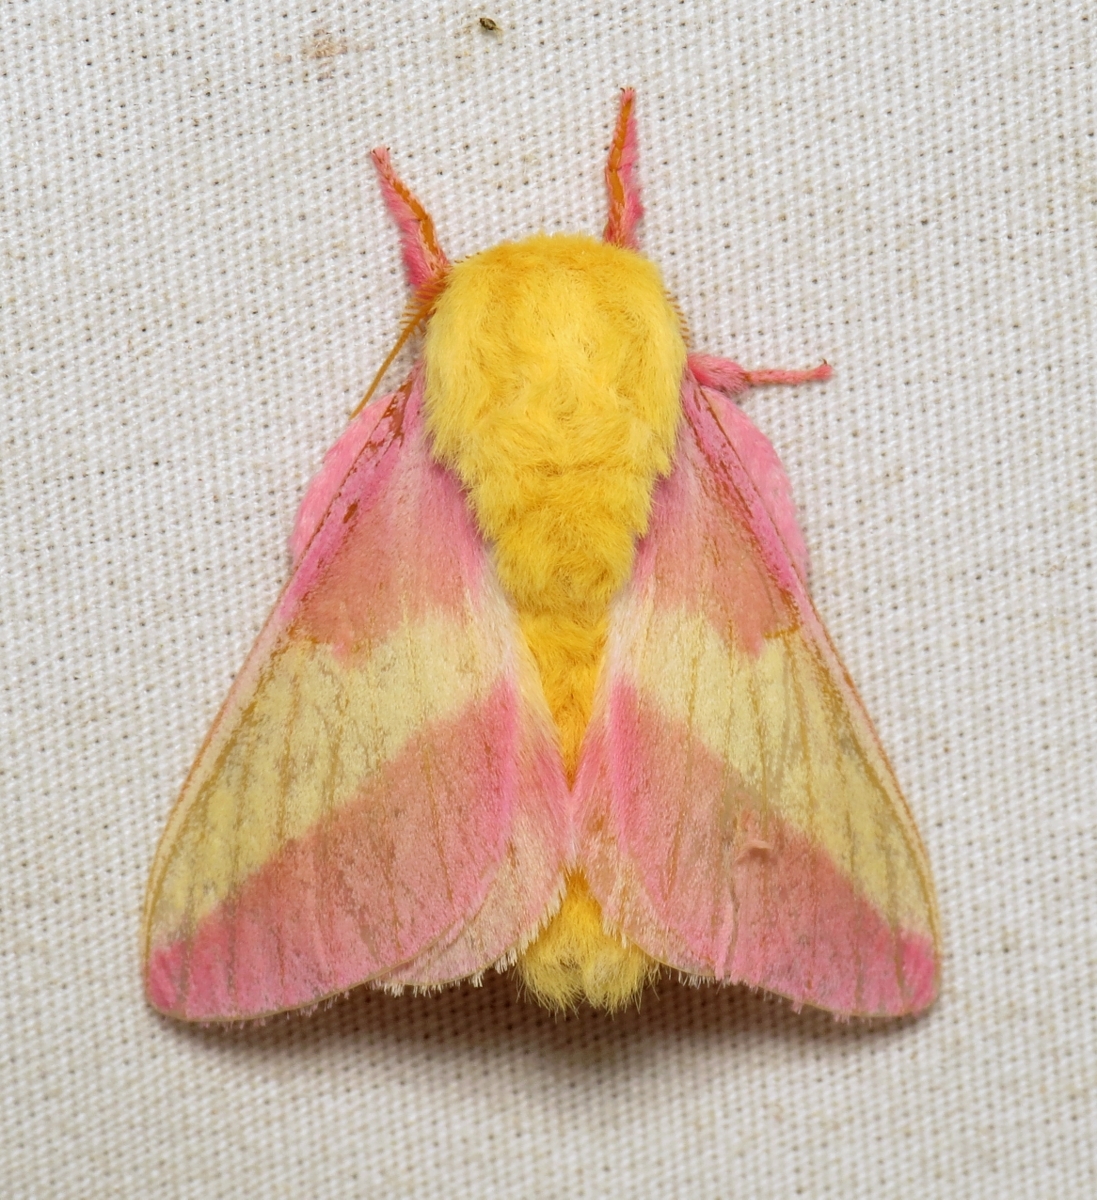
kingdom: Animalia
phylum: Arthropoda
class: Insecta
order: Lepidoptera
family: Saturniidae
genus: Dryocampa
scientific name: Dryocampa rubicunda
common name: Rosy maple moth
